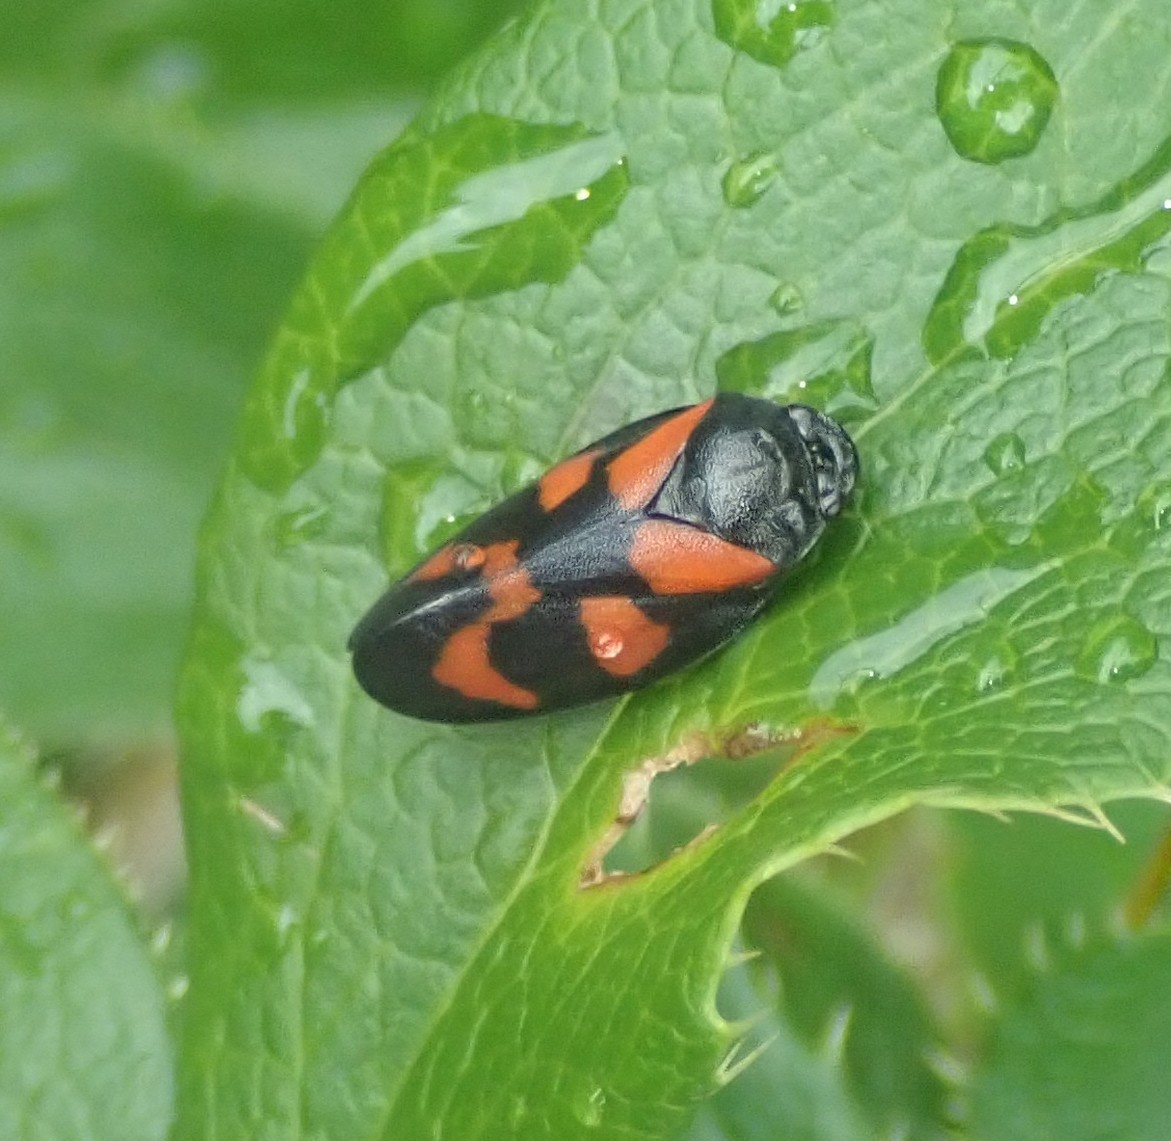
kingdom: Animalia
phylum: Arthropoda
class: Insecta
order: Hemiptera
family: Cercopidae
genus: Cercopis
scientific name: Cercopis vulnerata
